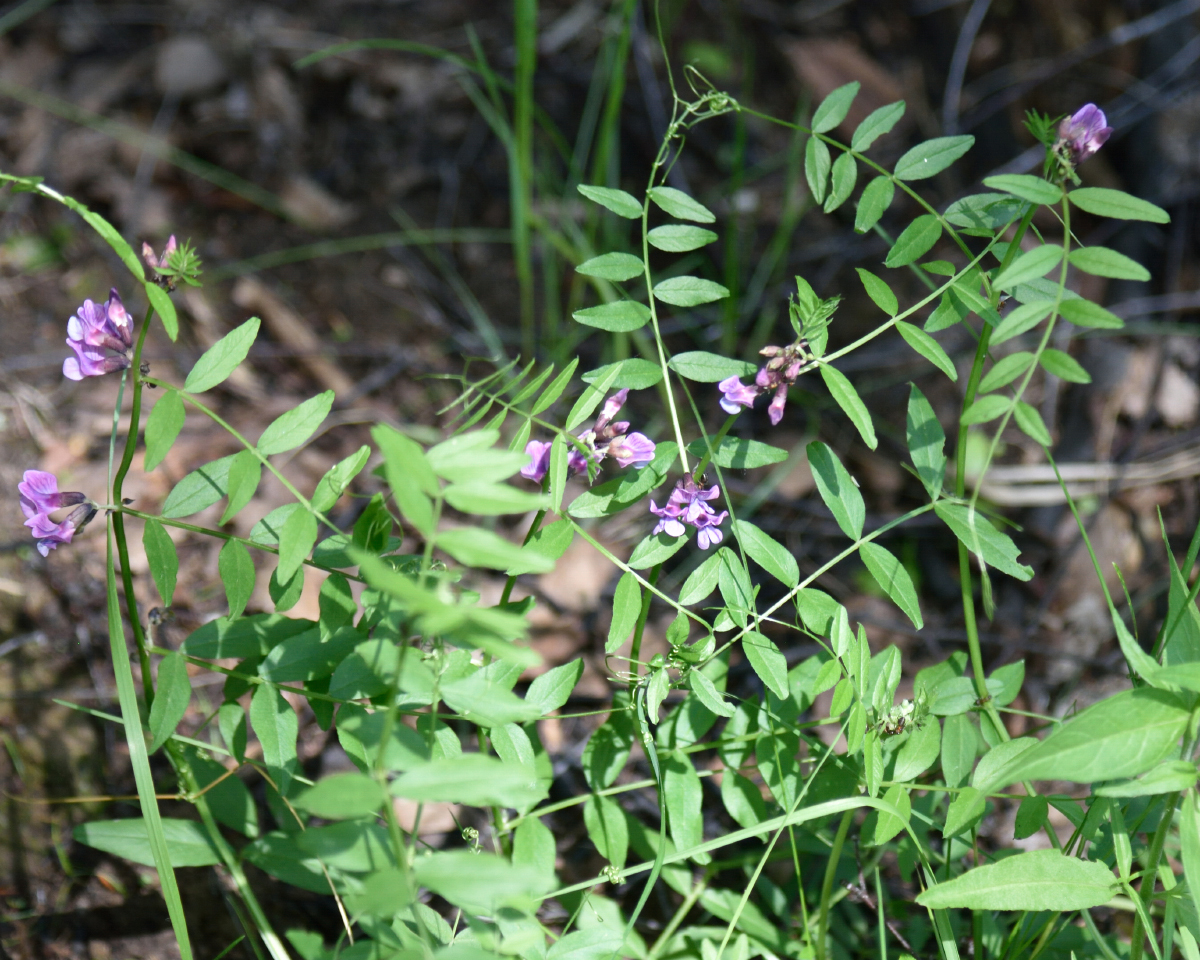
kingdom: Plantae
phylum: Tracheophyta
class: Magnoliopsida
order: Fabales
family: Fabaceae
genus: Vicia
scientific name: Vicia sepium
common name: Bush vetch
